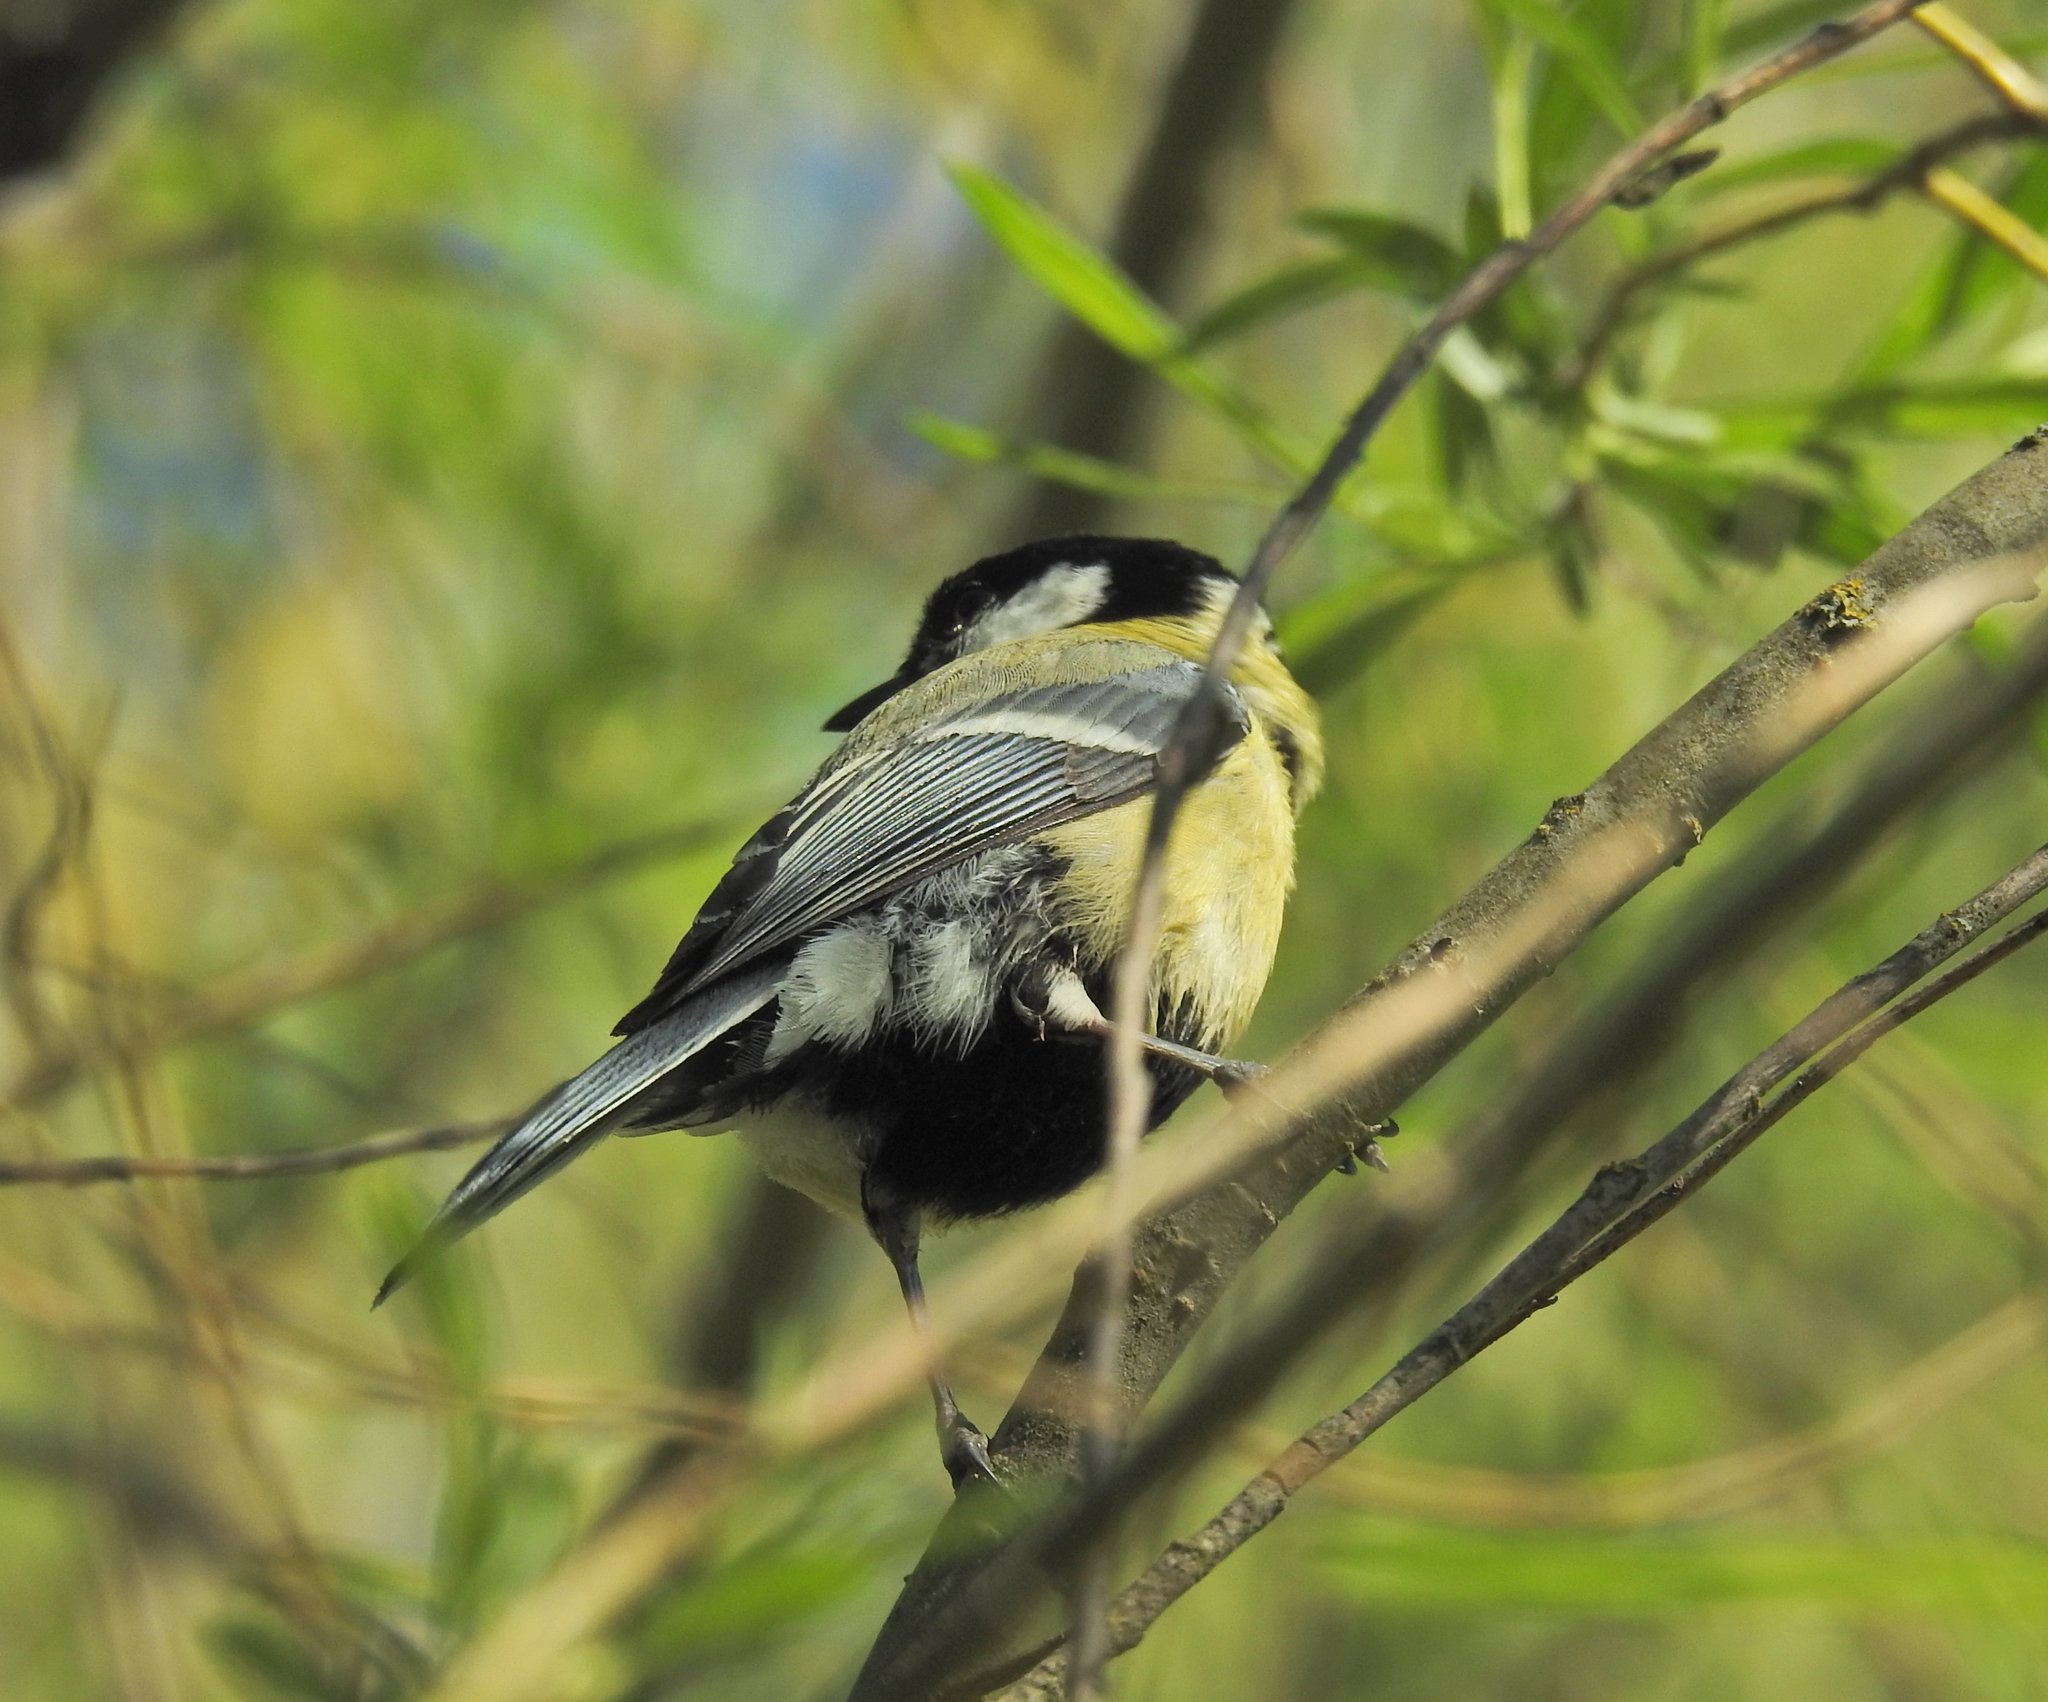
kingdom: Animalia
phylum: Chordata
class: Aves
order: Passeriformes
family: Paridae
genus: Parus
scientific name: Parus major
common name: Great tit
